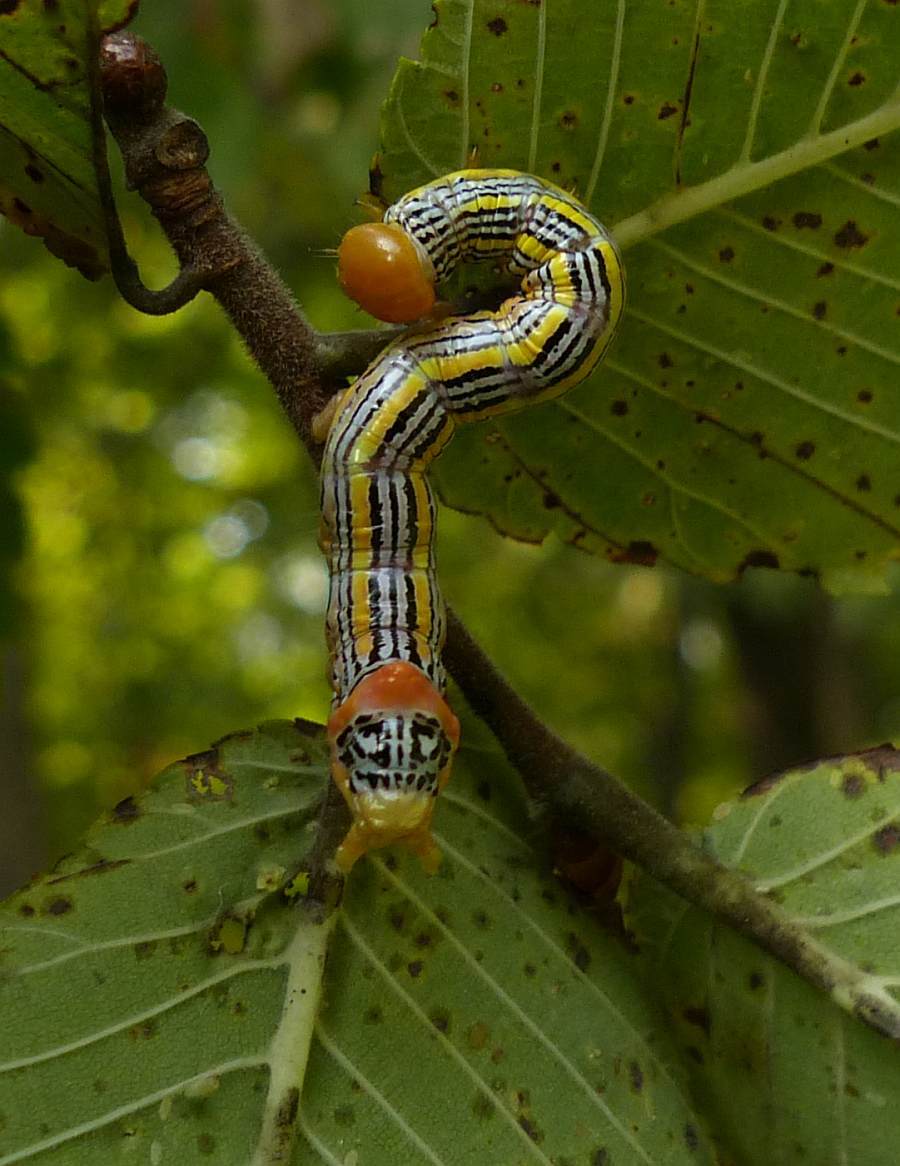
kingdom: Animalia
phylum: Arthropoda
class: Insecta
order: Lepidoptera
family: Notodontidae
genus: Symmerista
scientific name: Symmerista leucitys
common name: Orange-humped mapleworm
